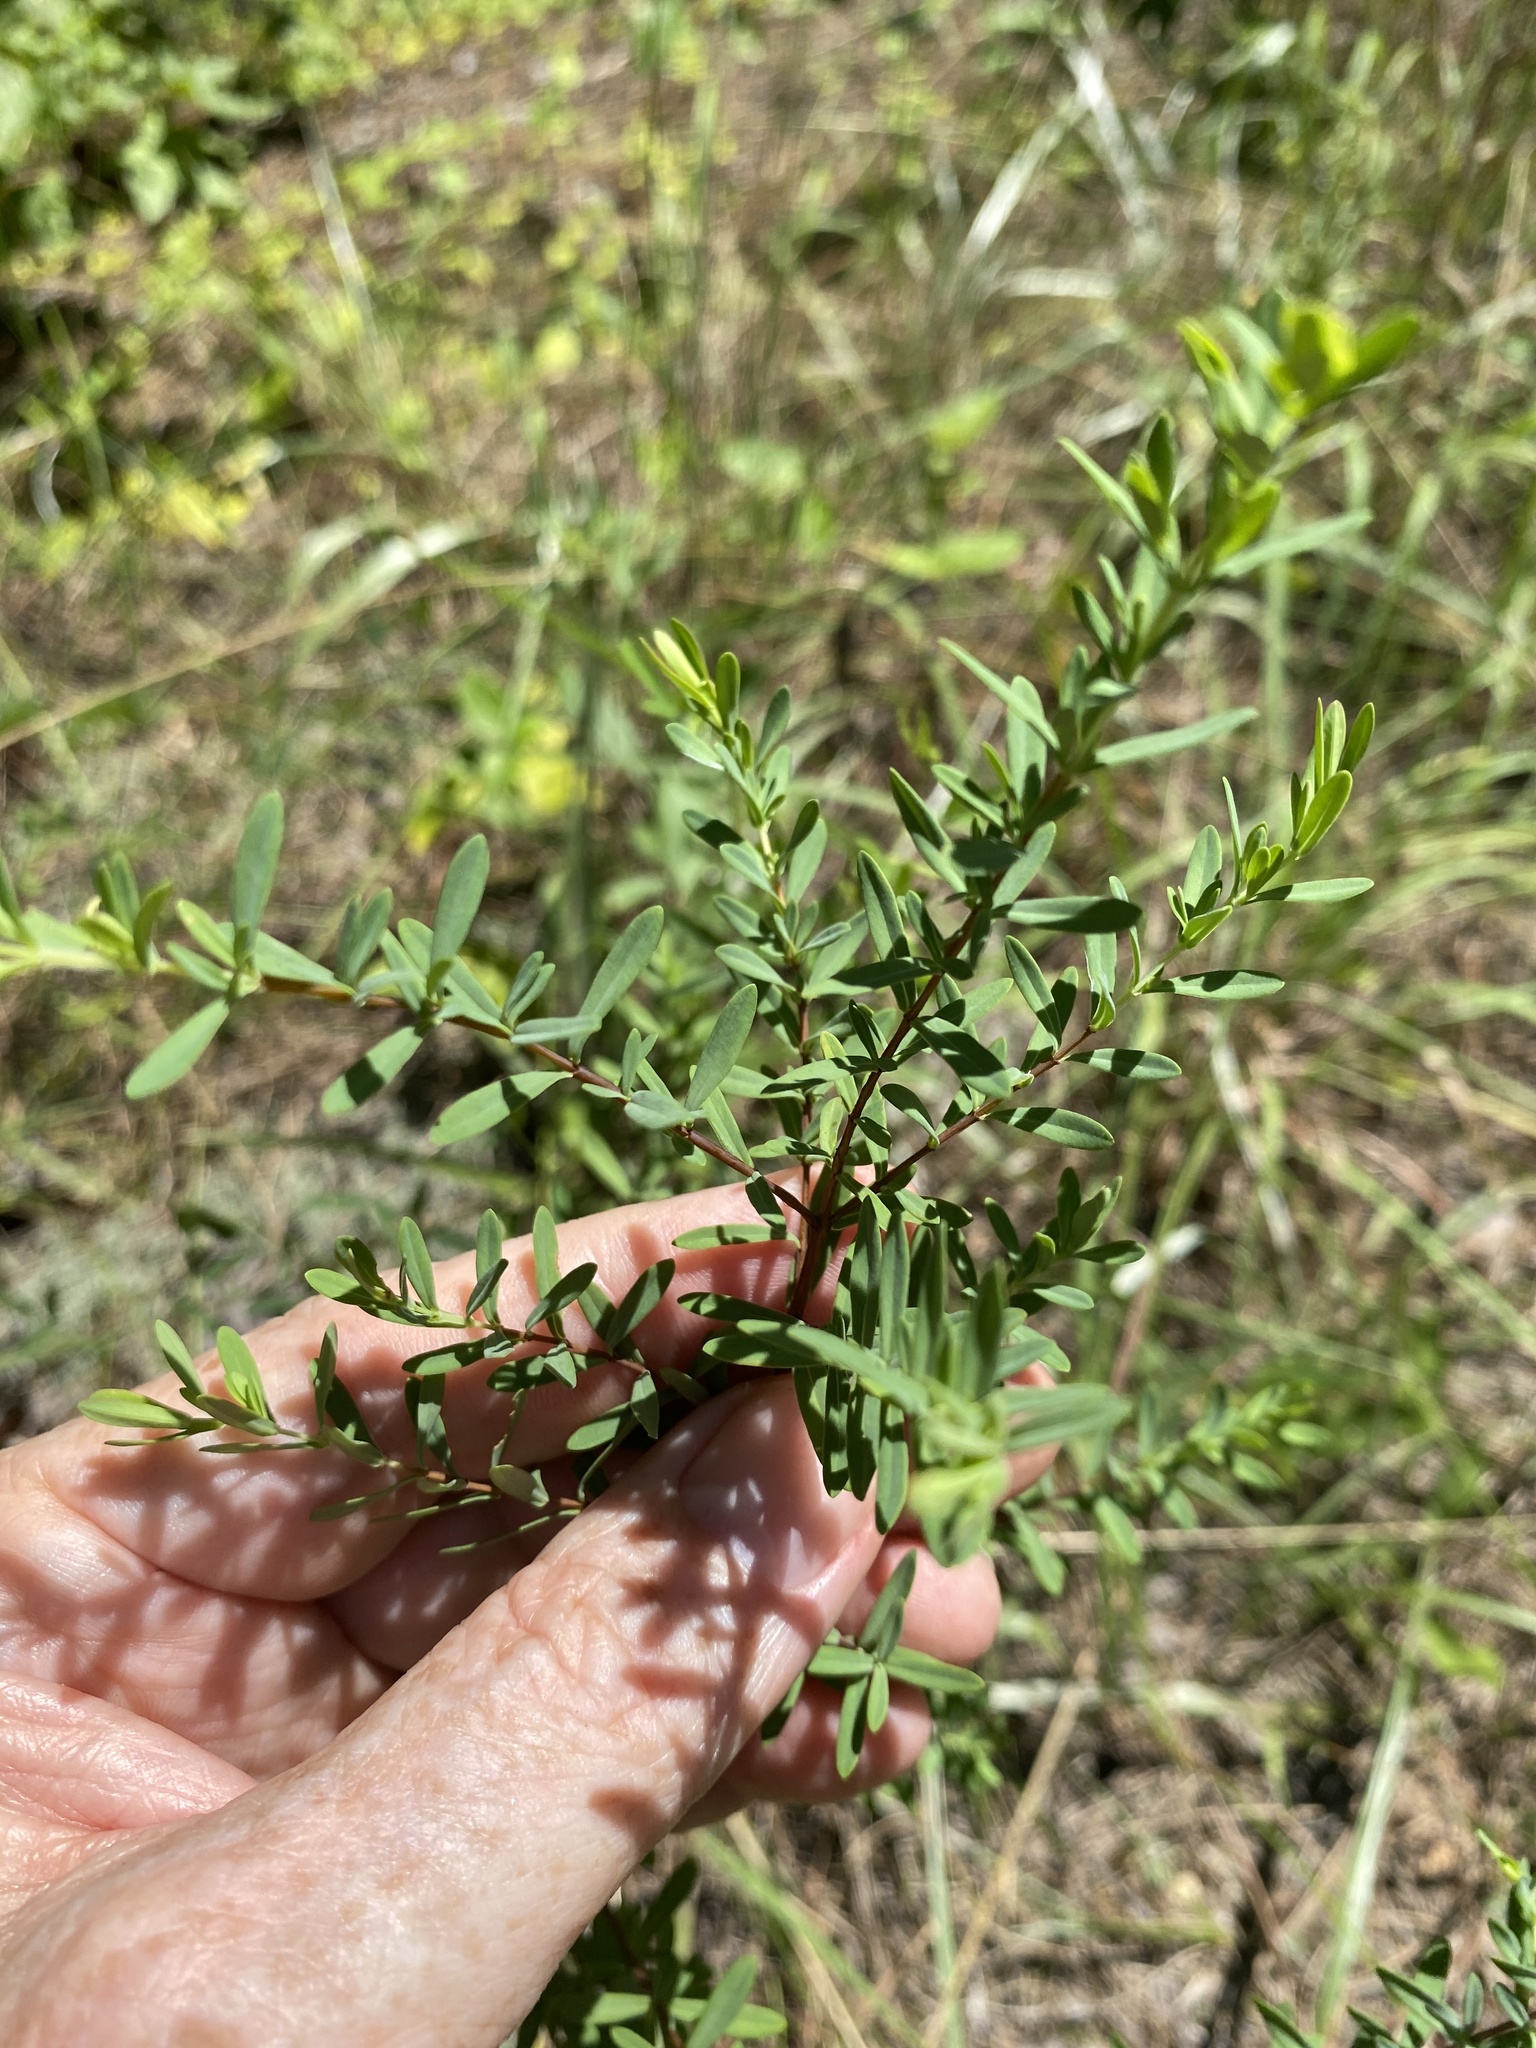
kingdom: Plantae
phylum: Tracheophyta
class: Magnoliopsida
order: Malpighiales
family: Hypericaceae
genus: Hypericum
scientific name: Hypericum hypericoides
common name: St. andrew's cross
